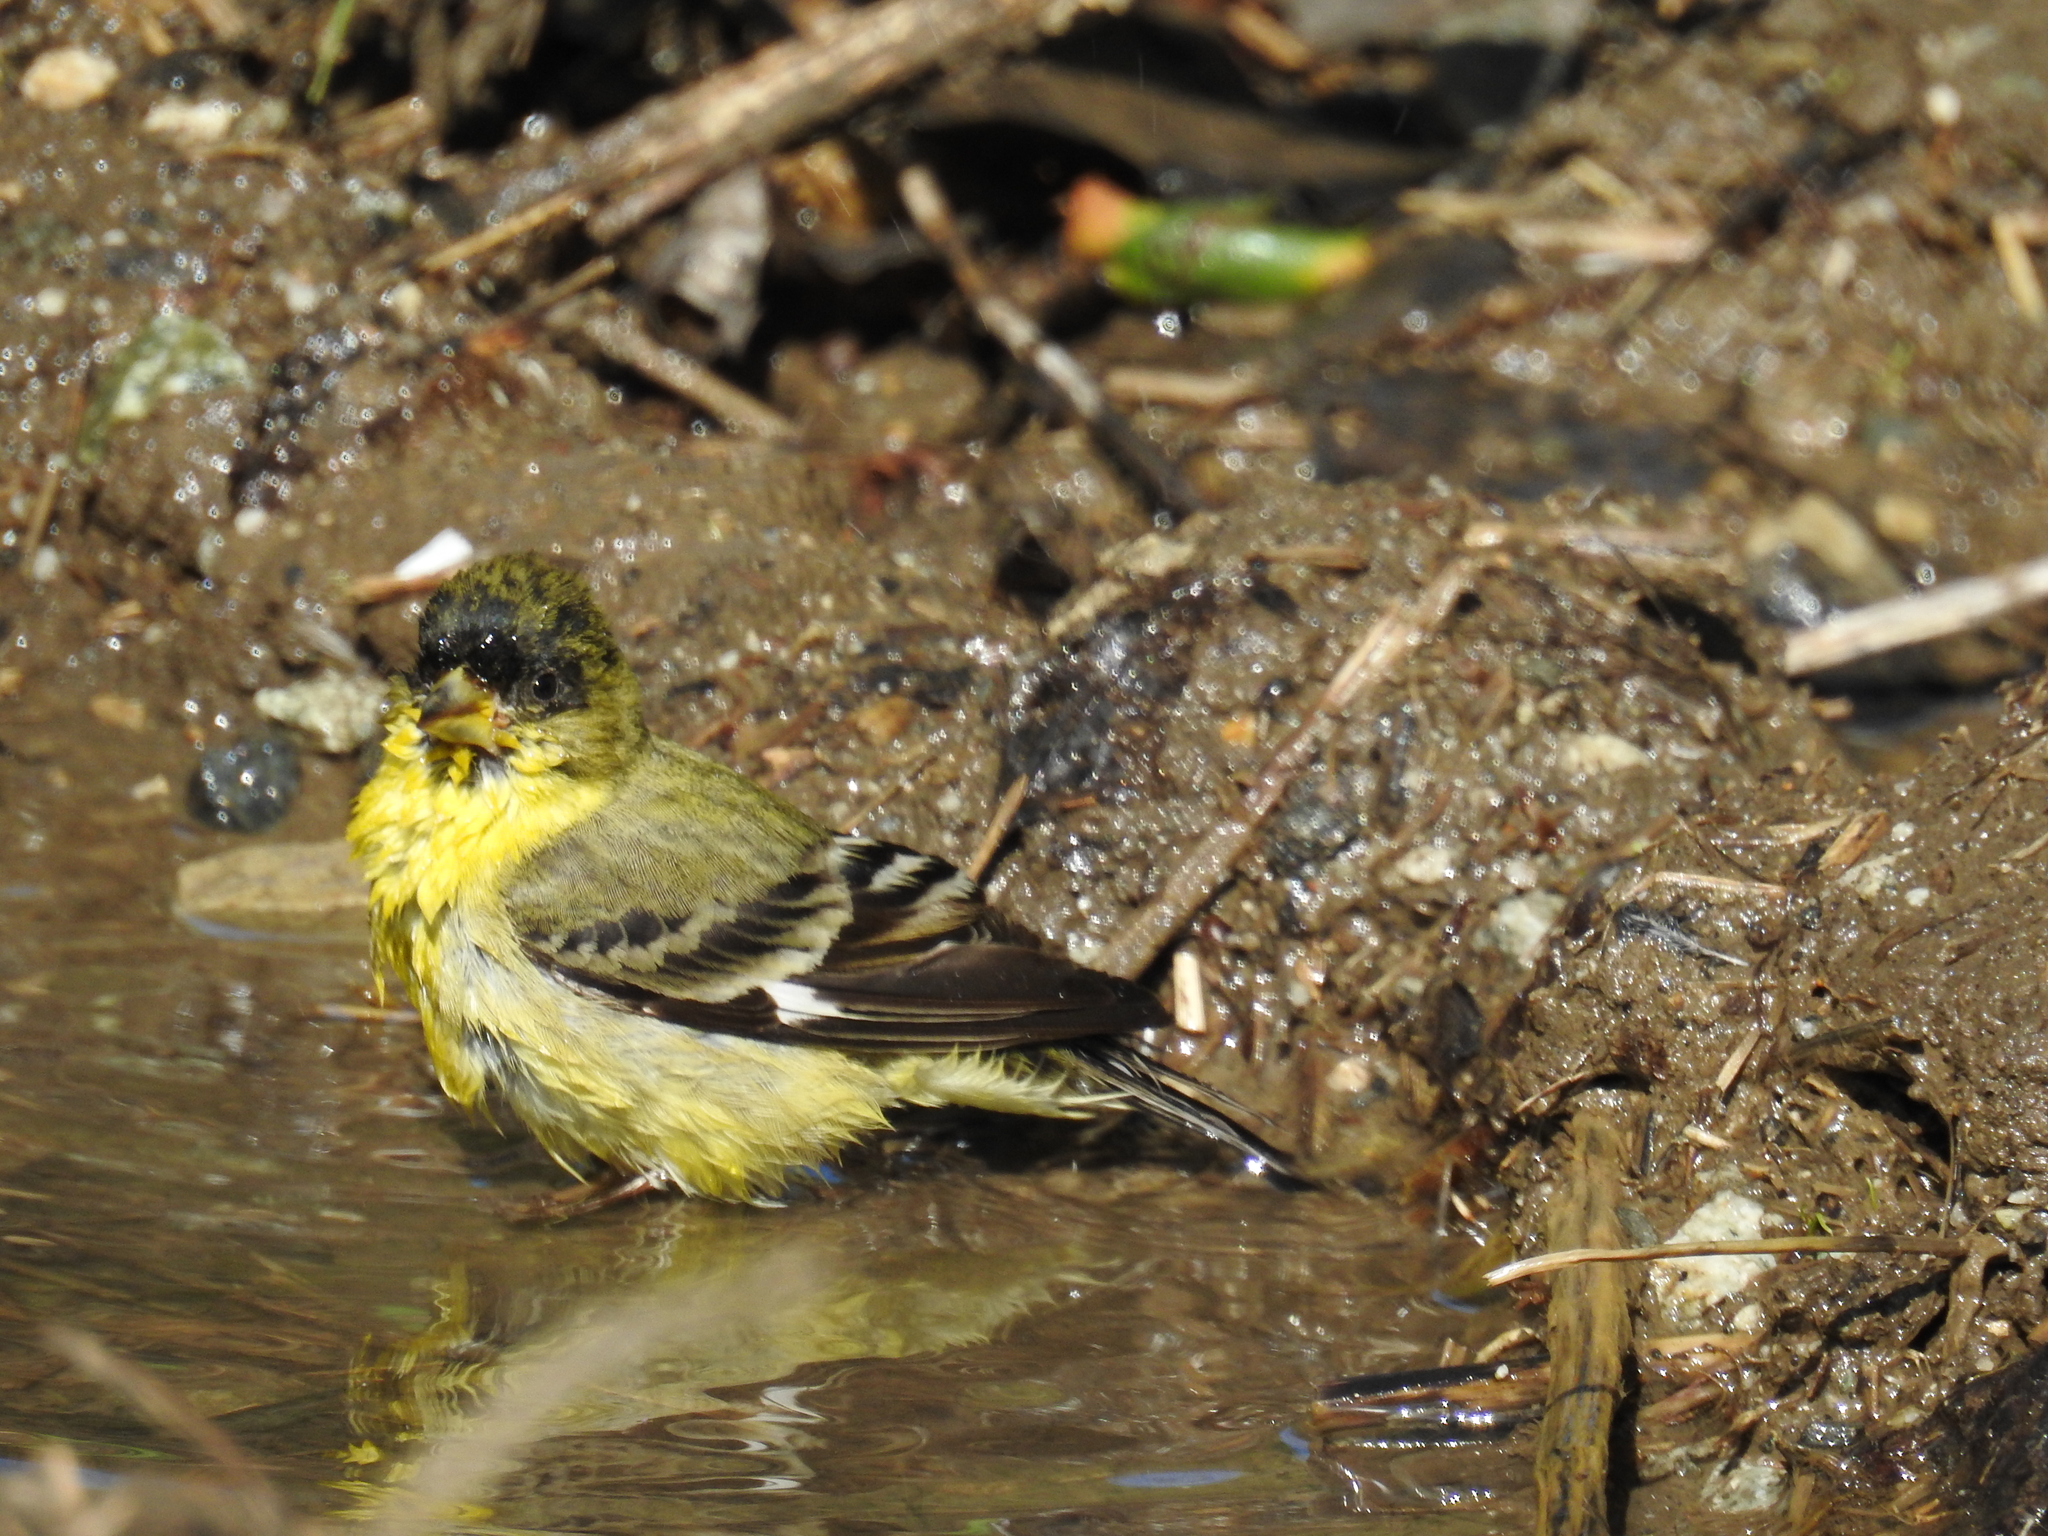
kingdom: Animalia
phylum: Chordata
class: Aves
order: Passeriformes
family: Fringillidae
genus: Spinus
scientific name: Spinus psaltria
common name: Lesser goldfinch
